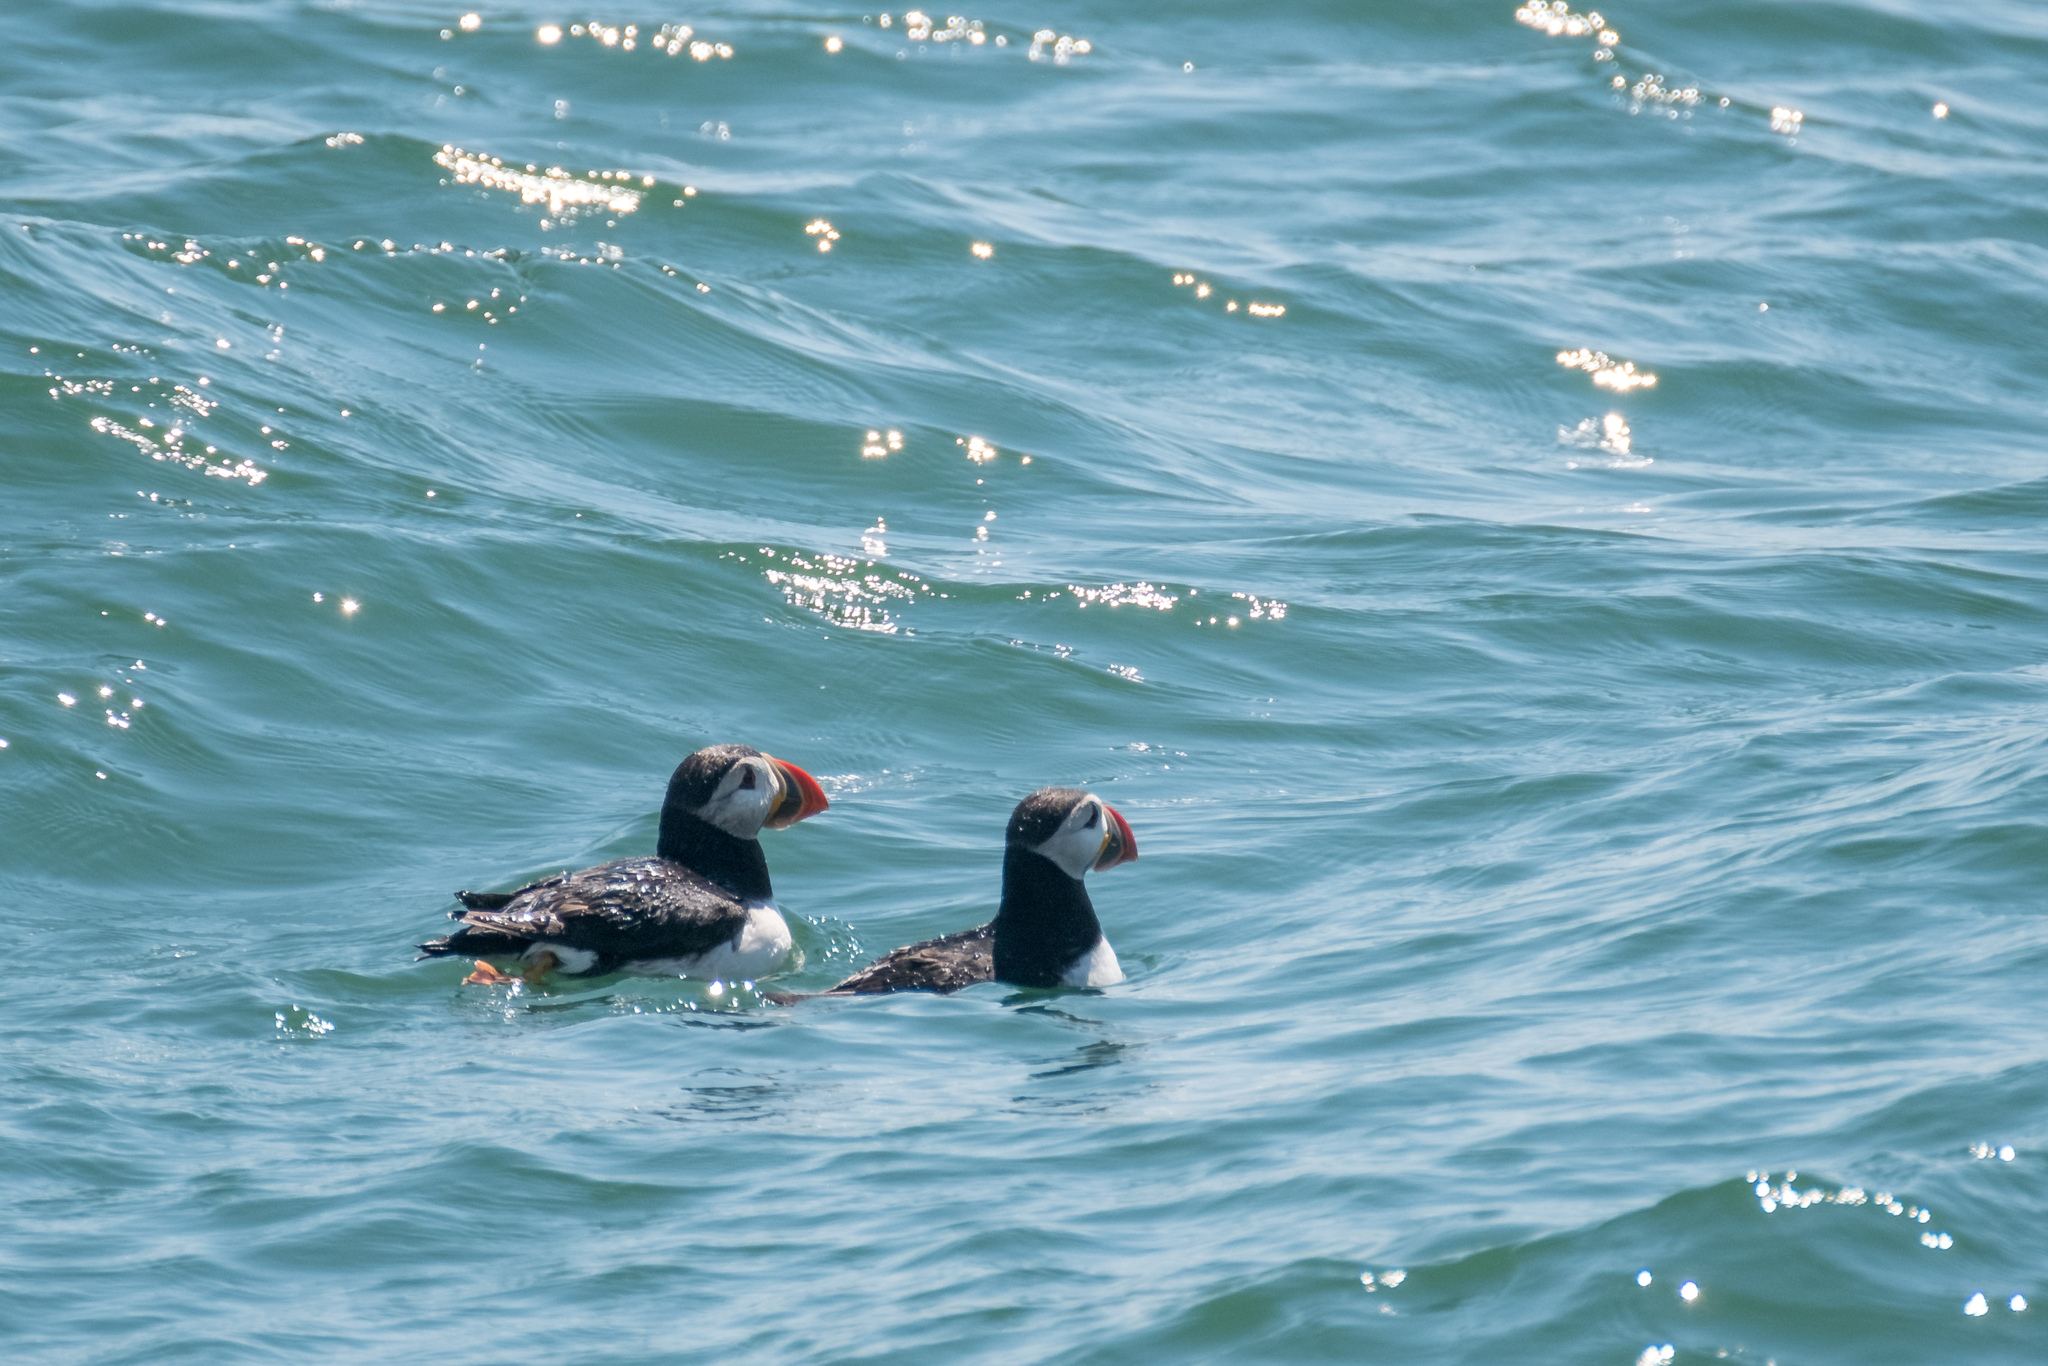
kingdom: Animalia
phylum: Chordata
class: Aves
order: Charadriiformes
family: Alcidae
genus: Fratercula
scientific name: Fratercula arctica
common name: Atlantic puffin
